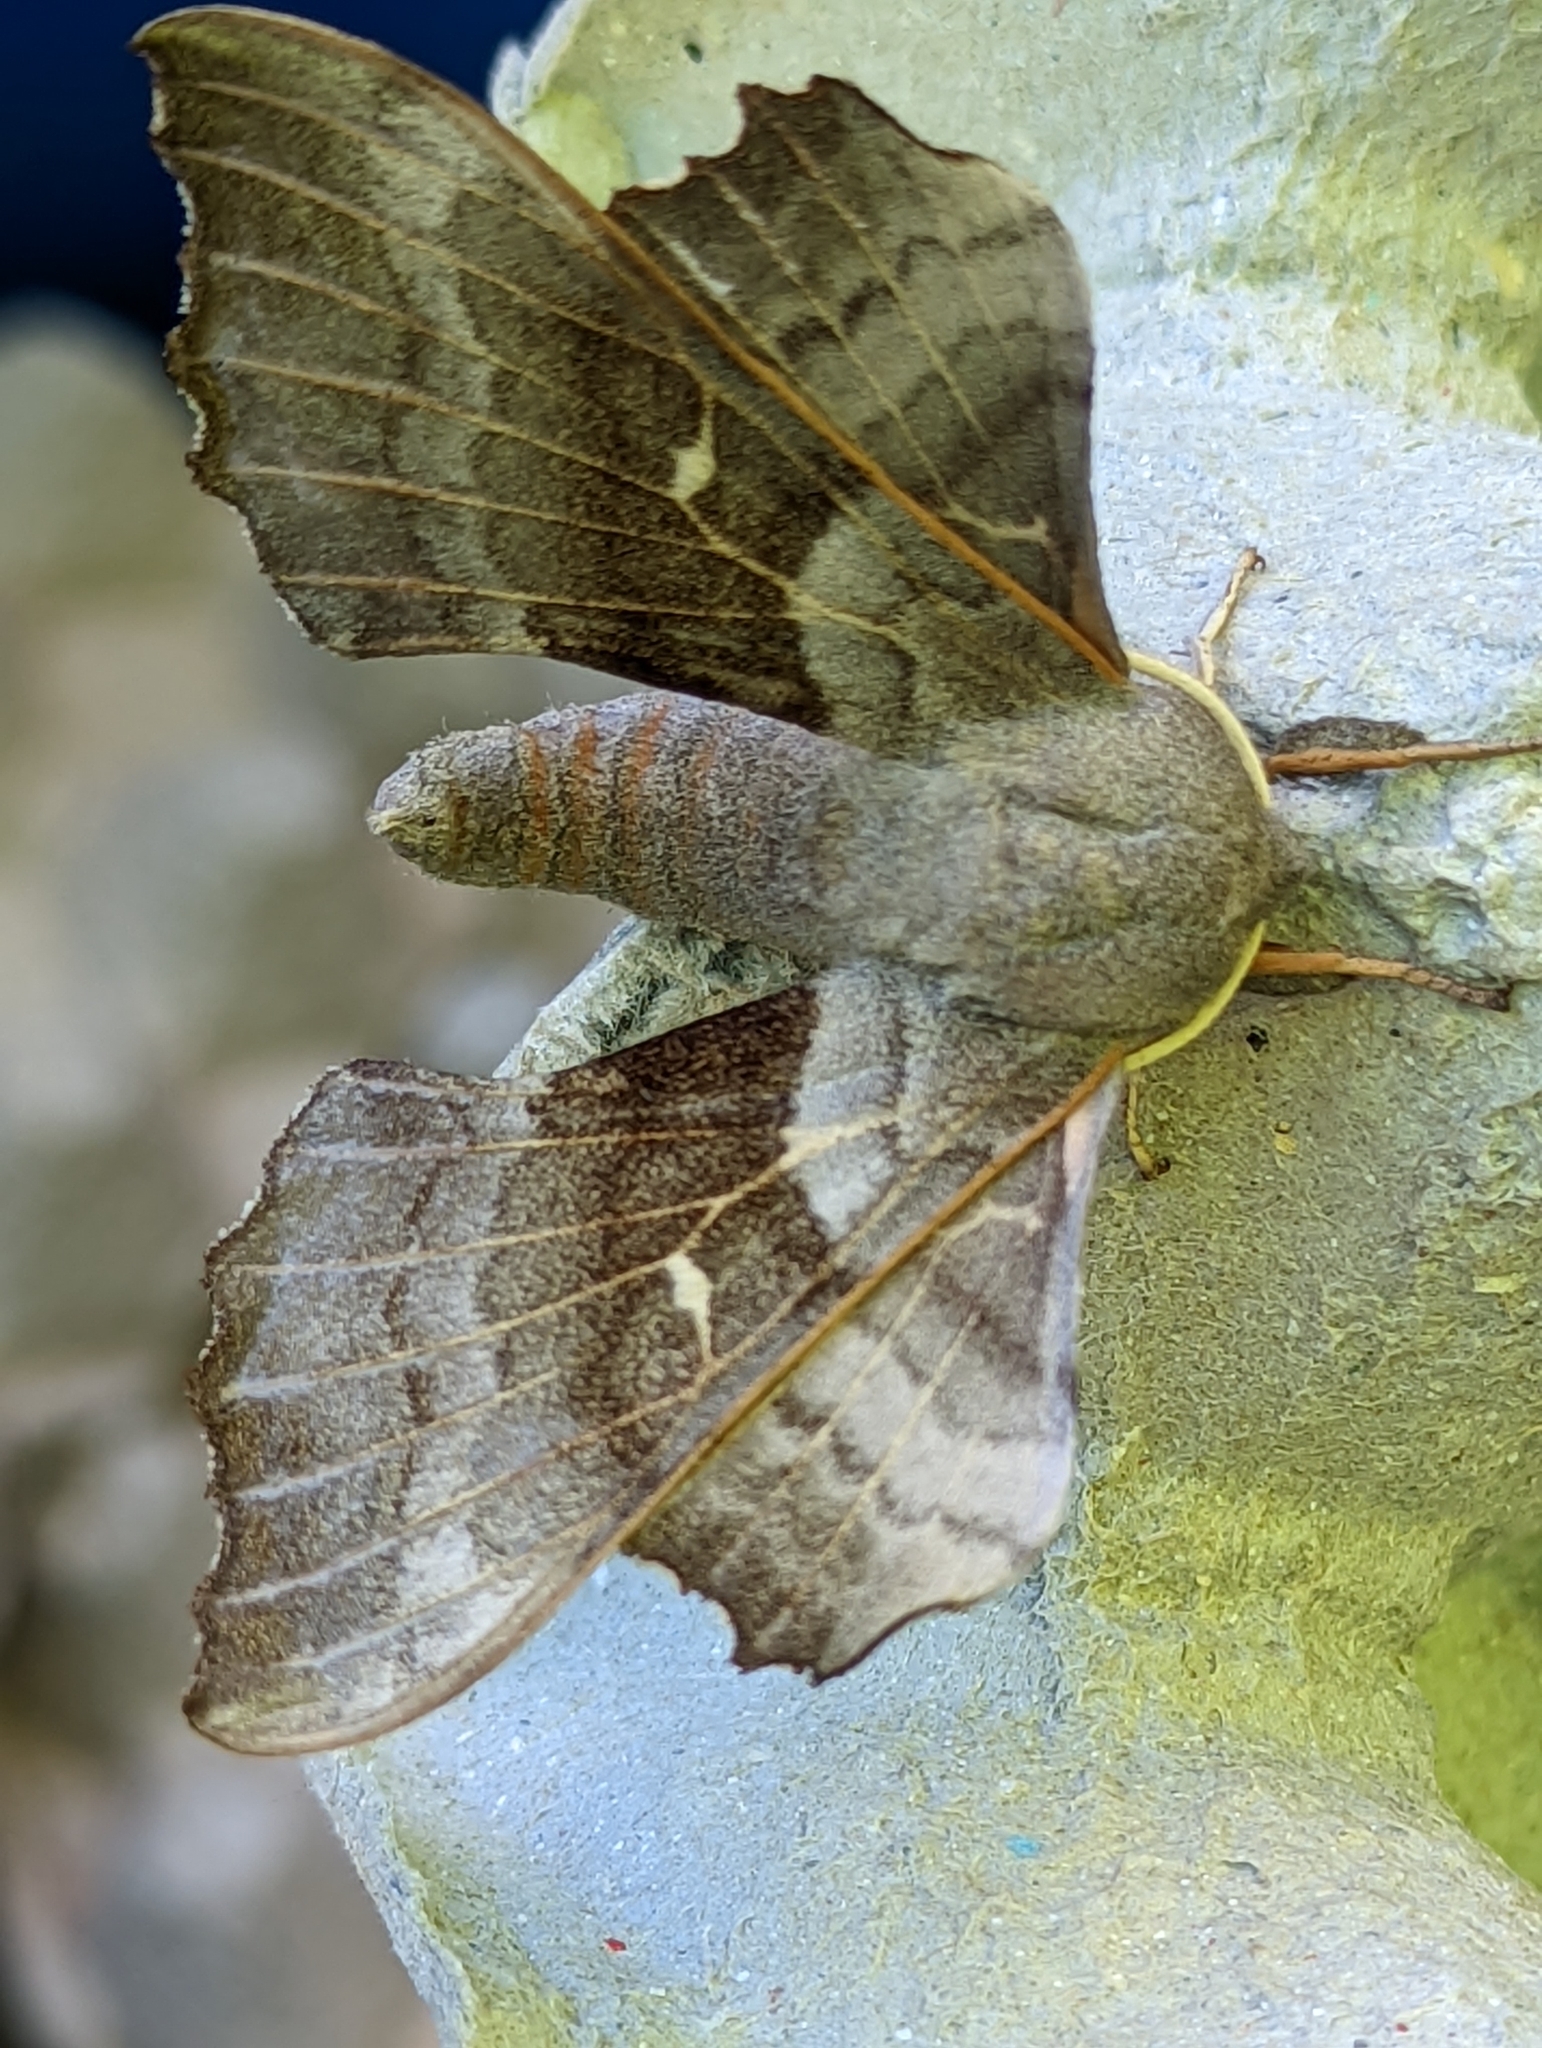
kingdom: Animalia
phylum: Arthropoda
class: Insecta
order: Lepidoptera
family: Sphingidae
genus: Laothoe
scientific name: Laothoe populi
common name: Poplar hawk-moth
